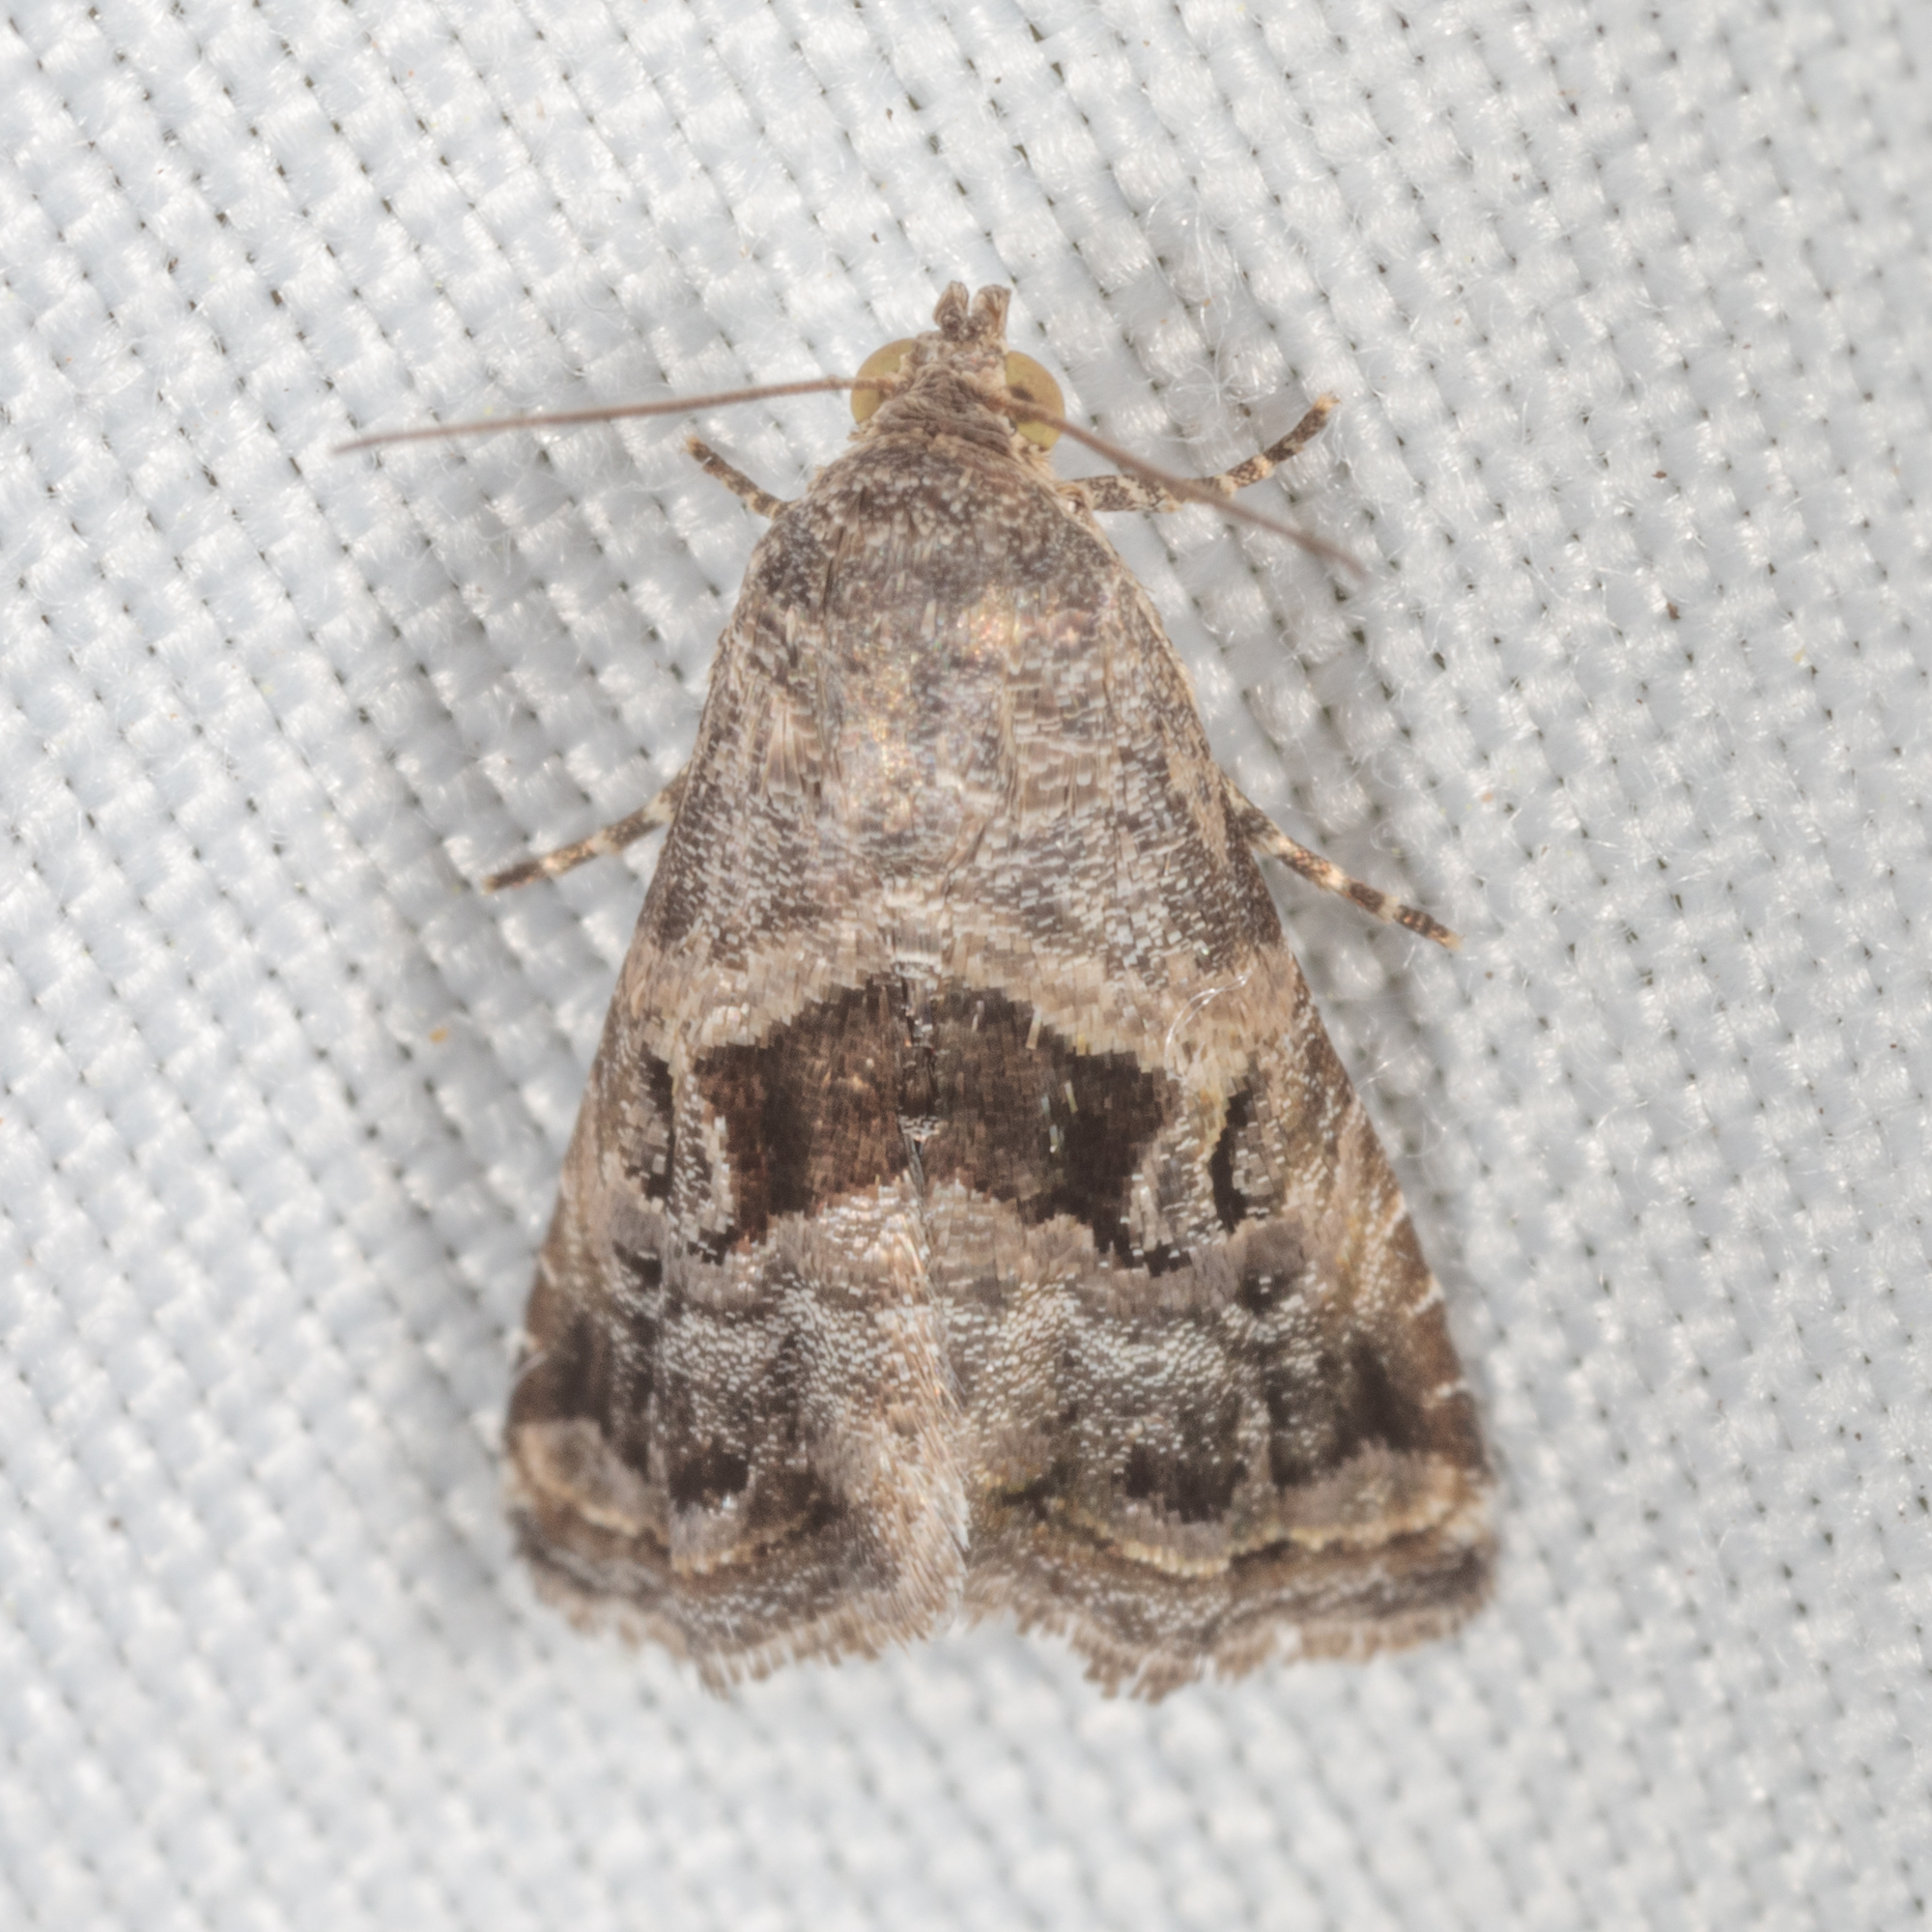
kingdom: Animalia
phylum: Arthropoda
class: Insecta
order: Lepidoptera
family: Noctuidae
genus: Tripudia
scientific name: Tripudia quadrifera
